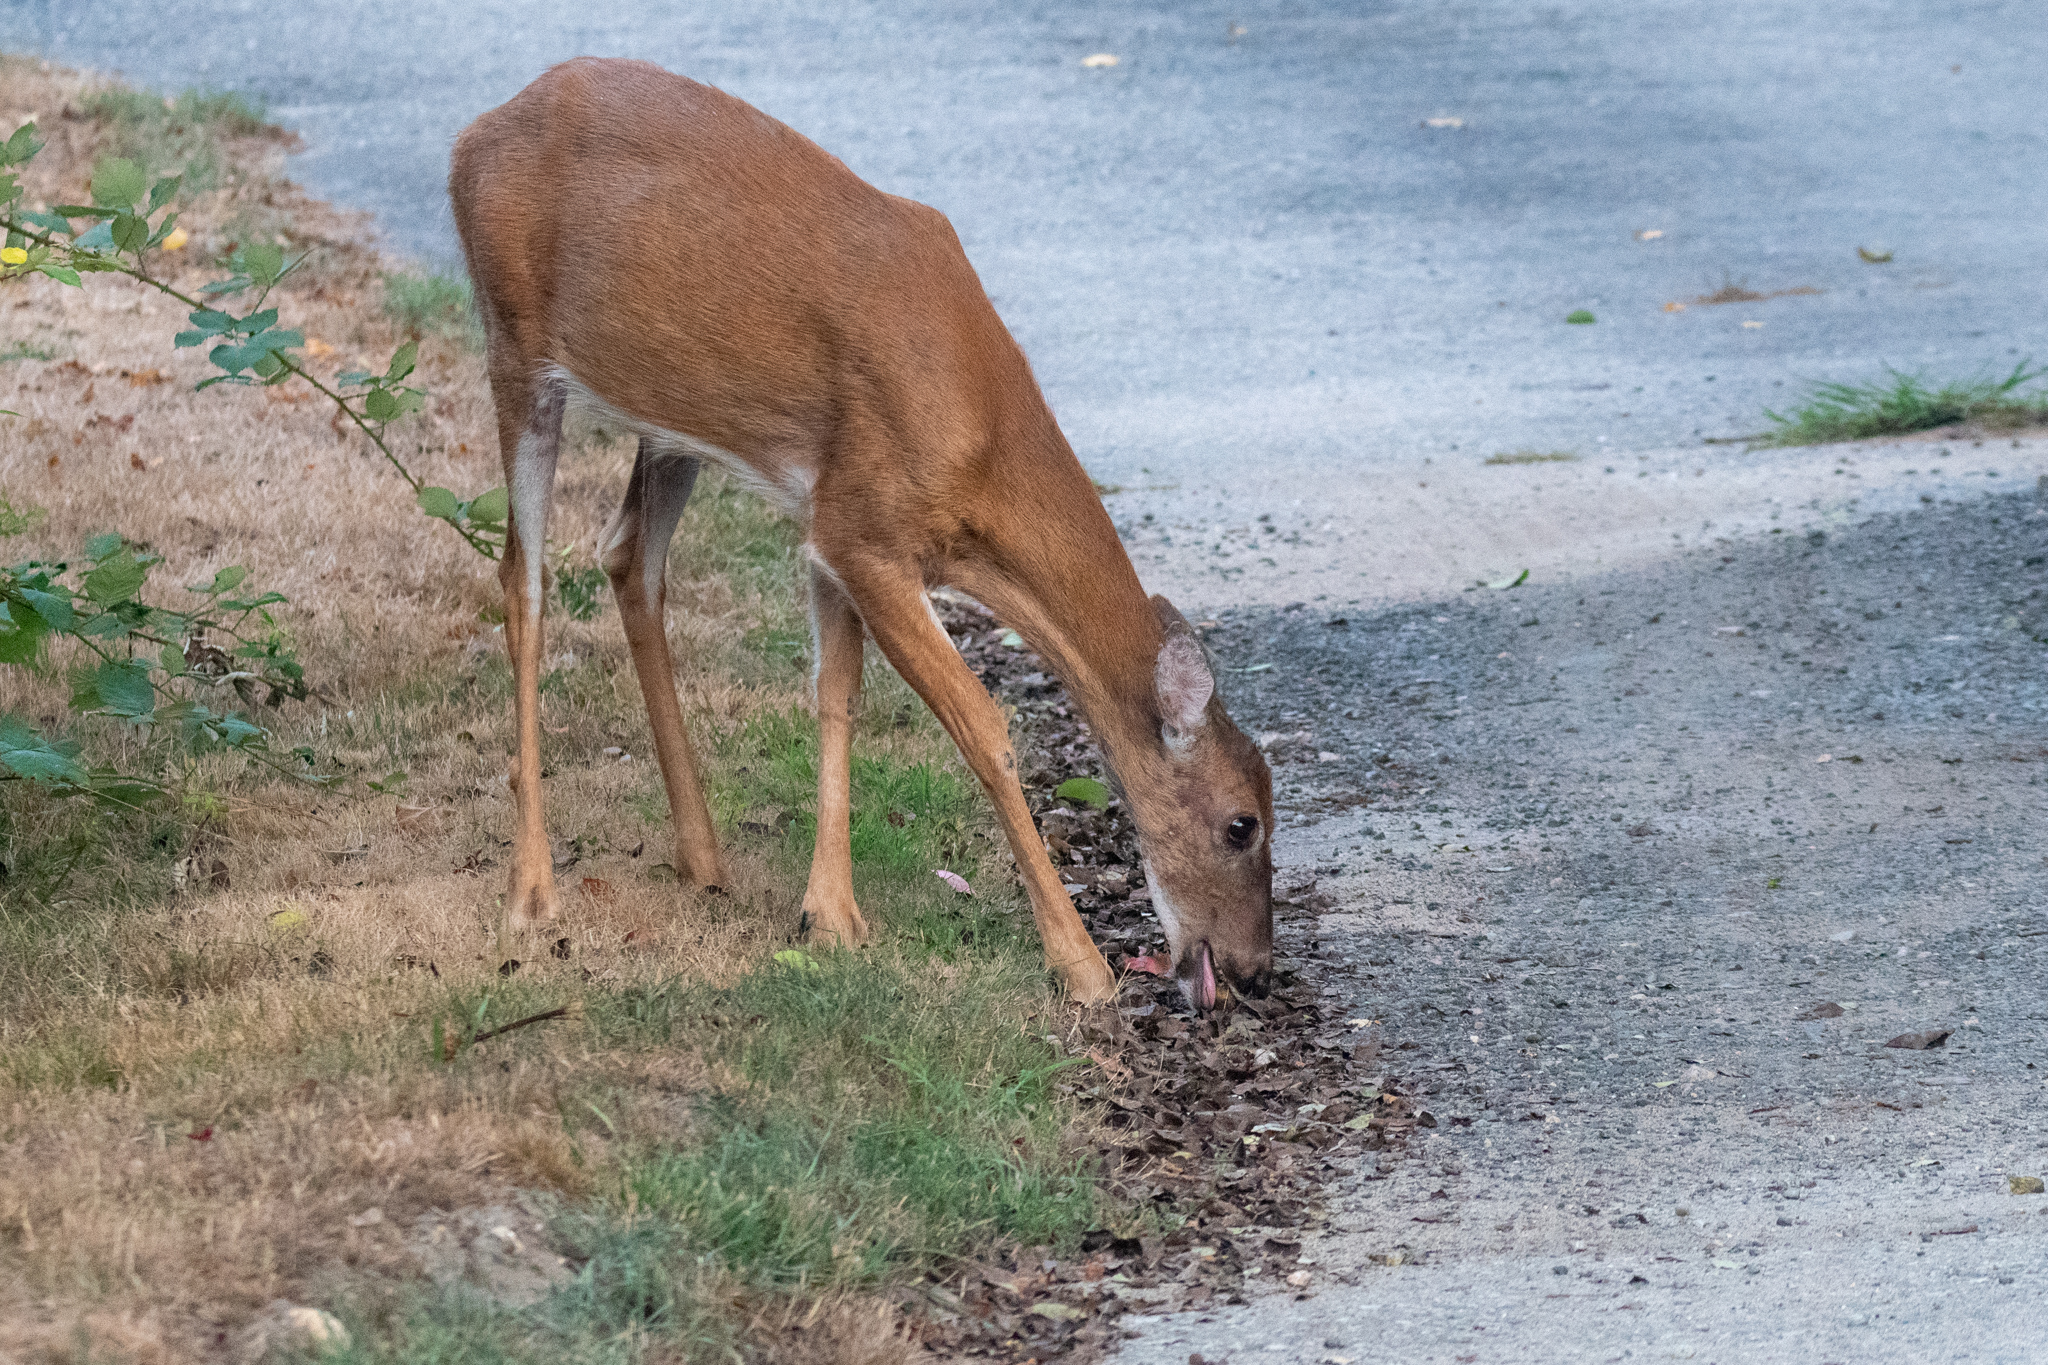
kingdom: Animalia
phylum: Chordata
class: Mammalia
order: Artiodactyla
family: Cervidae
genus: Odocoileus
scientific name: Odocoileus virginianus
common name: White-tailed deer
